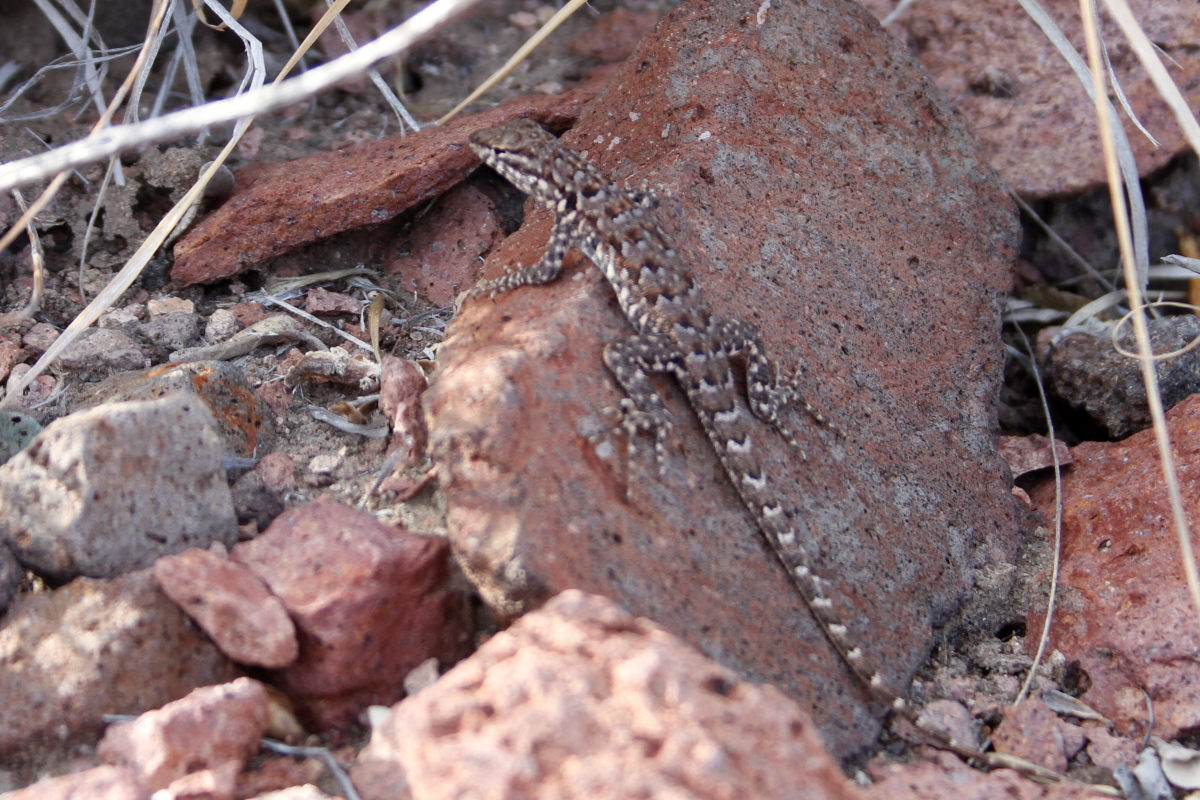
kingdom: Animalia
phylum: Chordata
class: Squamata
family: Phrynosomatidae
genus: Uta
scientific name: Uta stansburiana
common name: Side-blotched lizard
